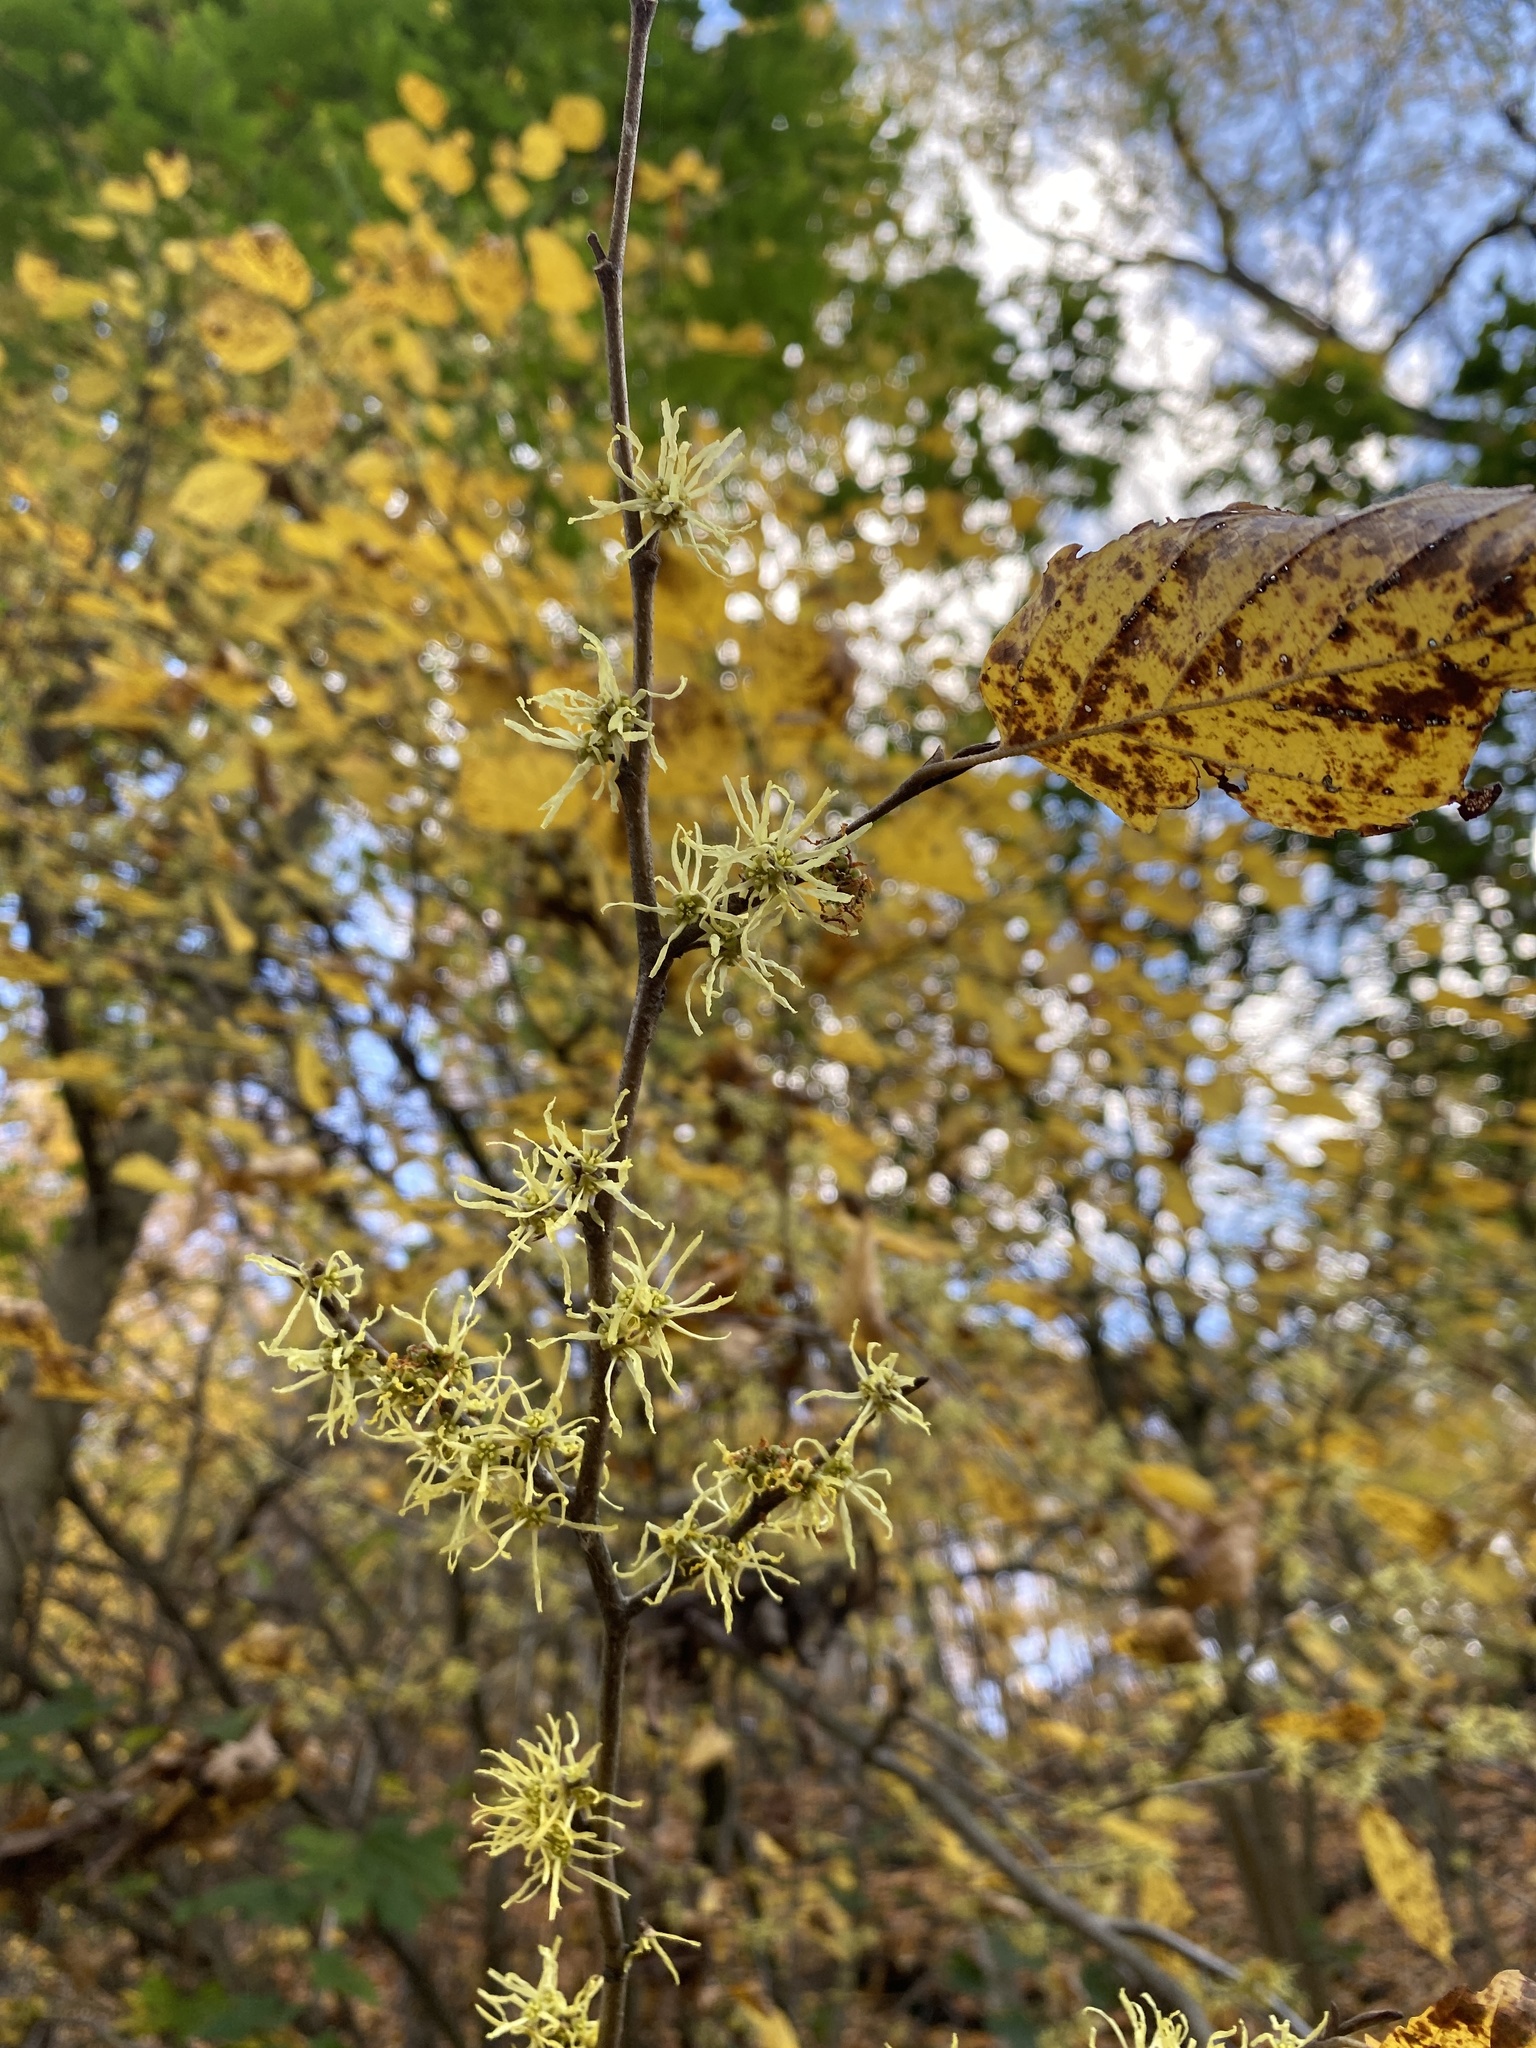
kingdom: Plantae
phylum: Tracheophyta
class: Magnoliopsida
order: Saxifragales
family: Hamamelidaceae
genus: Hamamelis
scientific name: Hamamelis virginiana
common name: Witch-hazel
